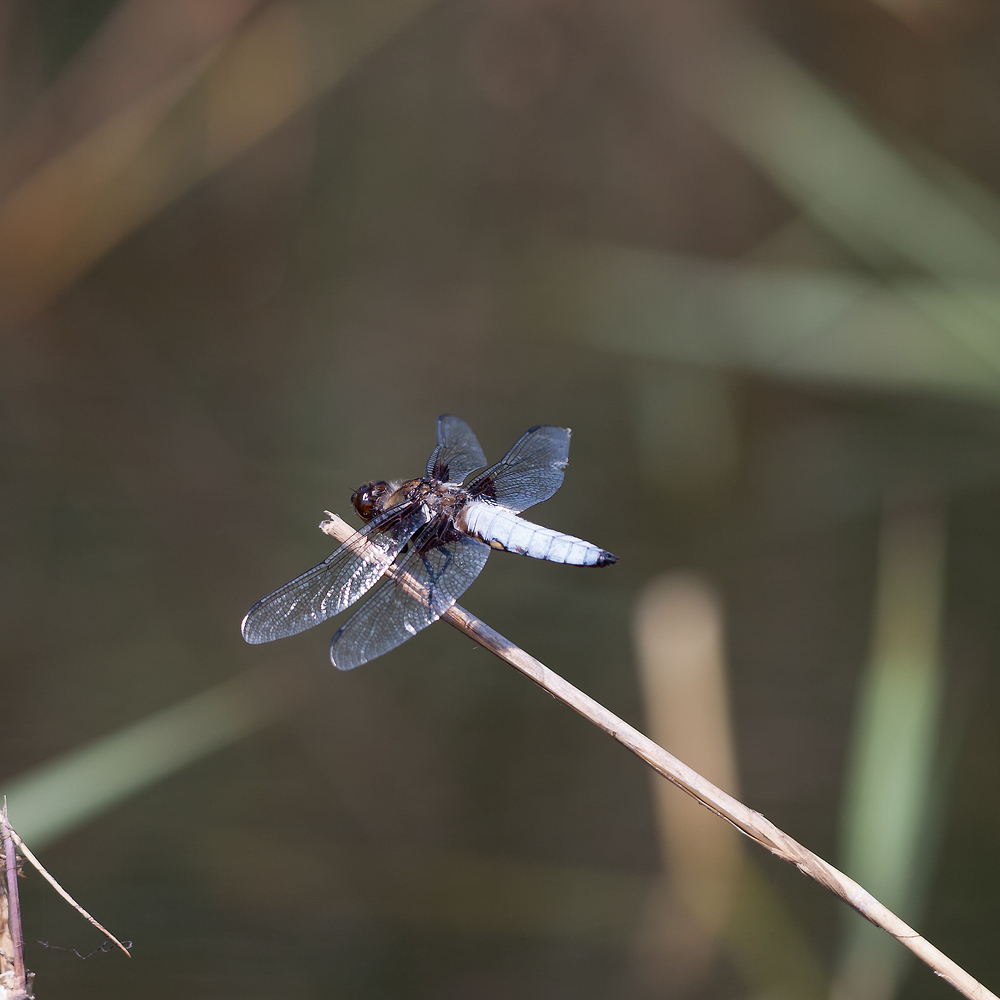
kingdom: Animalia
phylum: Arthropoda
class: Insecta
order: Odonata
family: Libellulidae
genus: Libellula
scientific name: Libellula depressa
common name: Broad-bodied chaser
